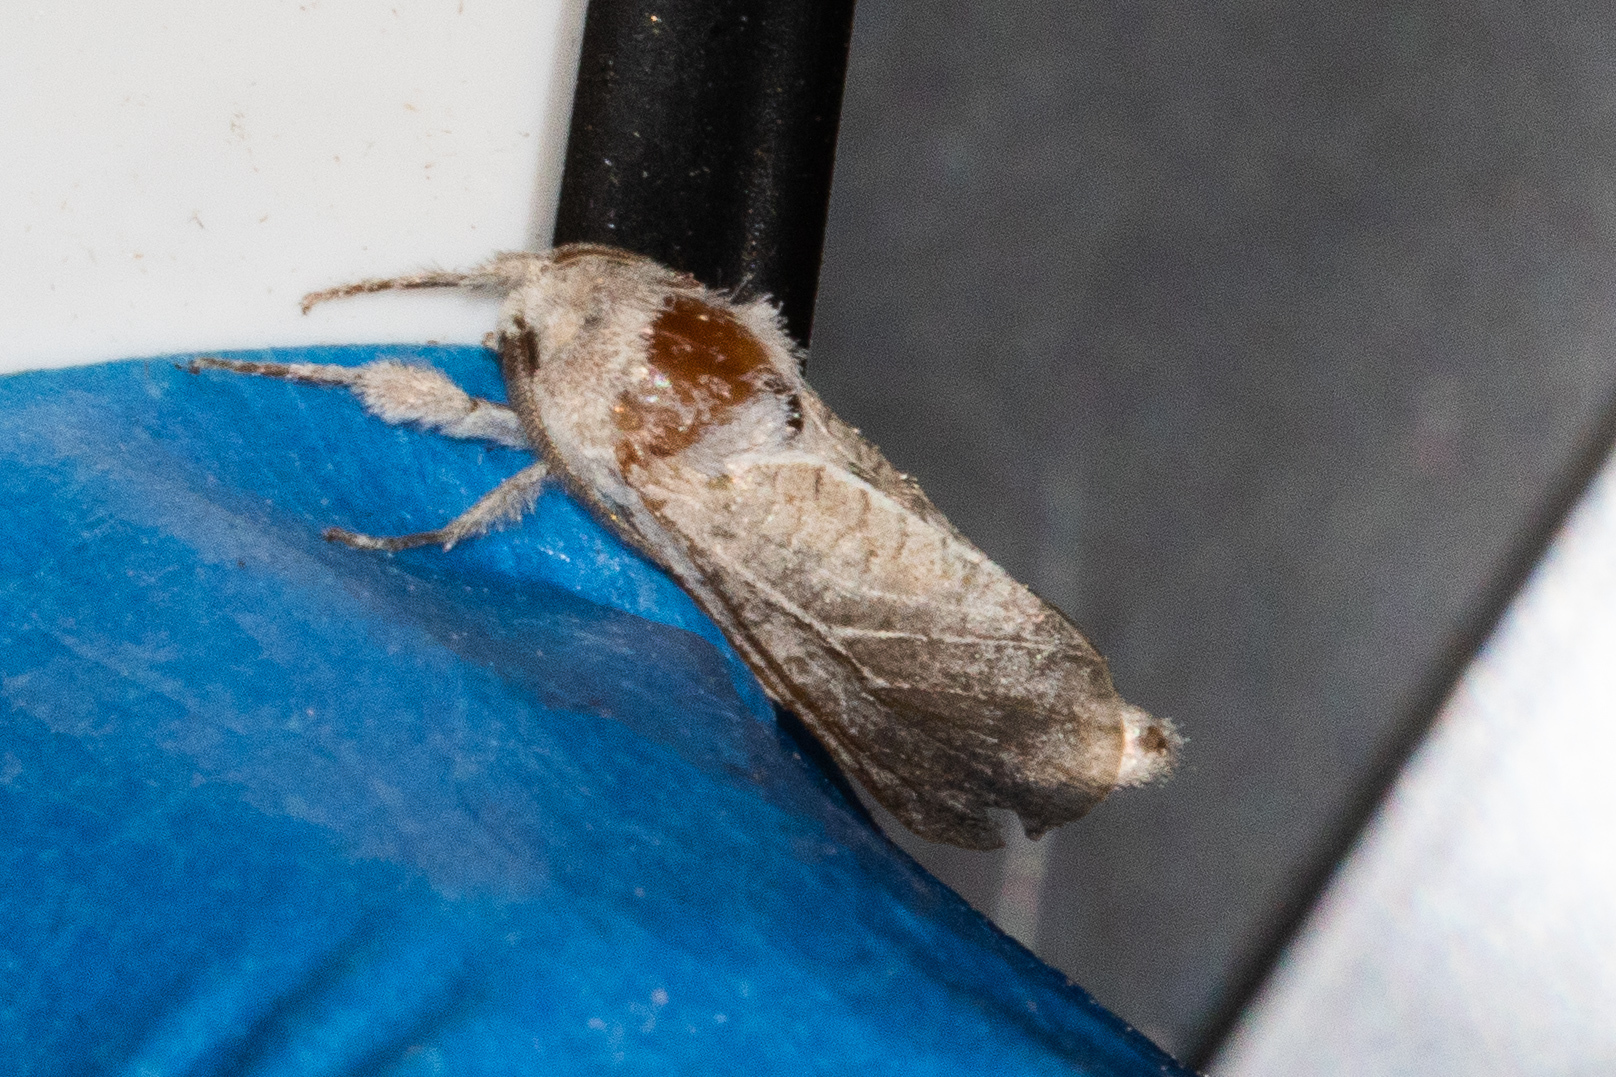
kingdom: Animalia
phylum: Arthropoda
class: Insecta
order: Lepidoptera
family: Cossidae
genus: Givira
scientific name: Givira anna
